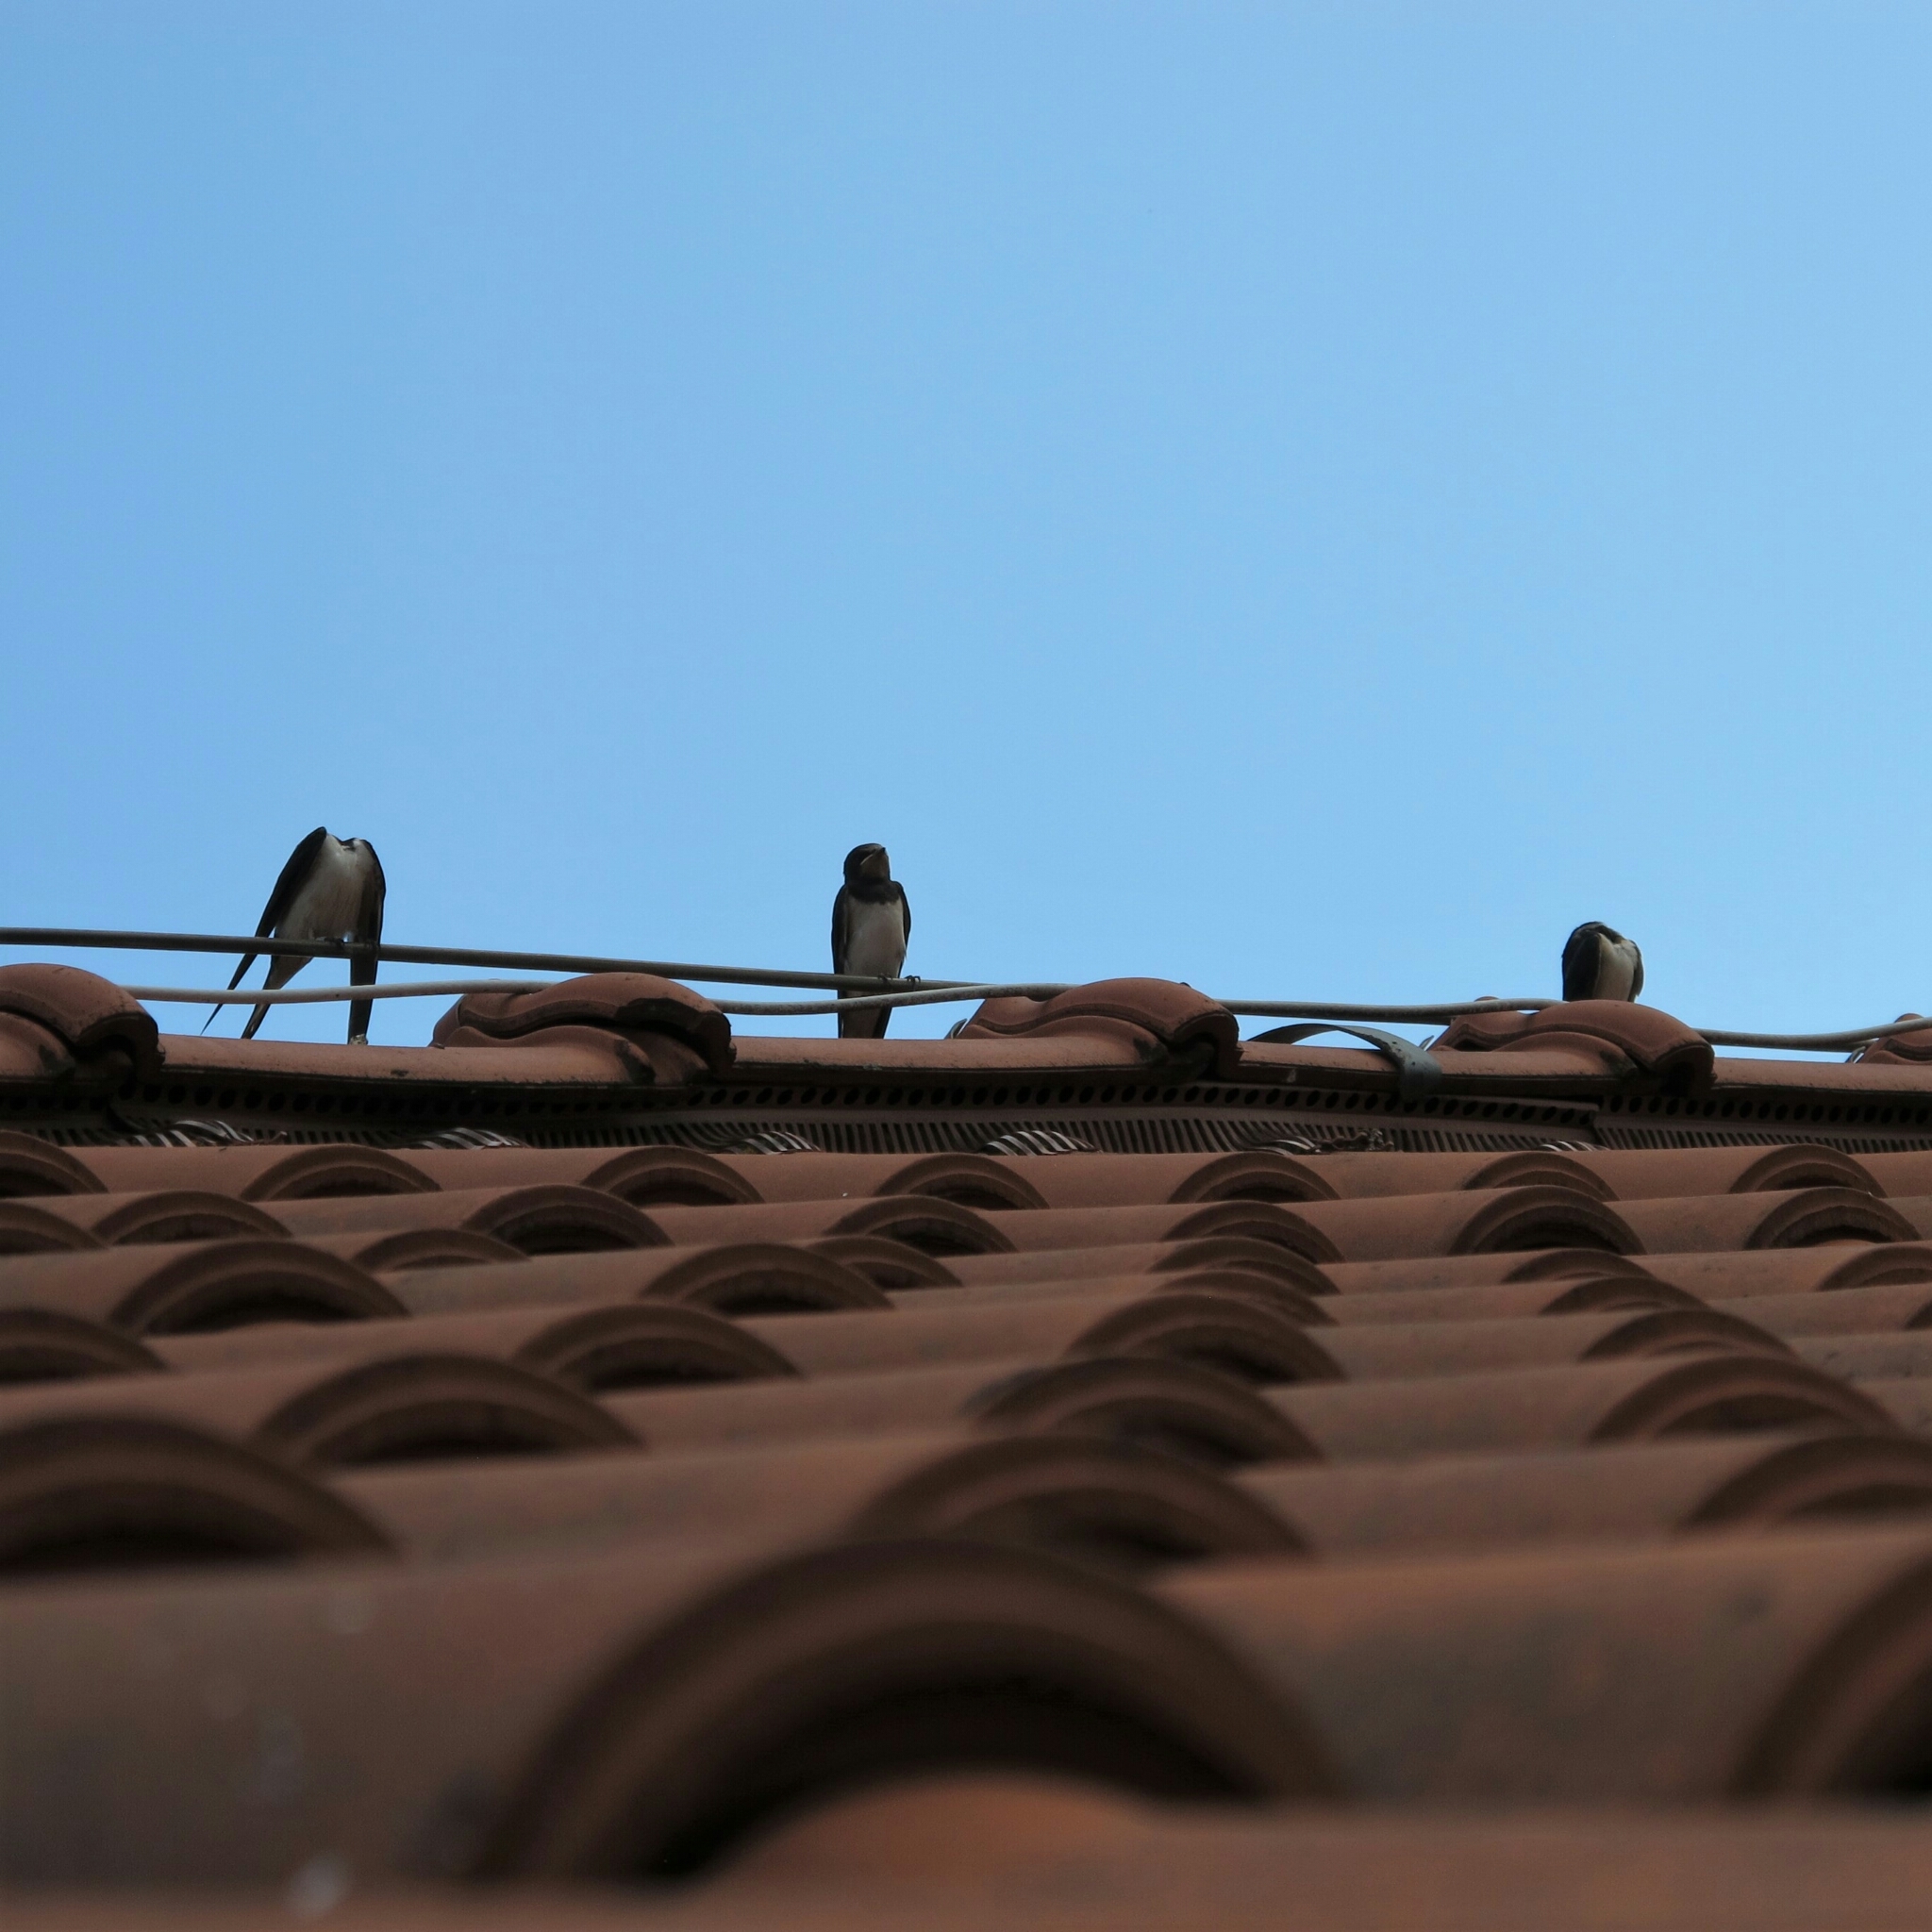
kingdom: Animalia
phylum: Chordata
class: Aves
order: Passeriformes
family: Hirundinidae
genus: Hirundo
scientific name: Hirundo rustica
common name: Barn swallow
